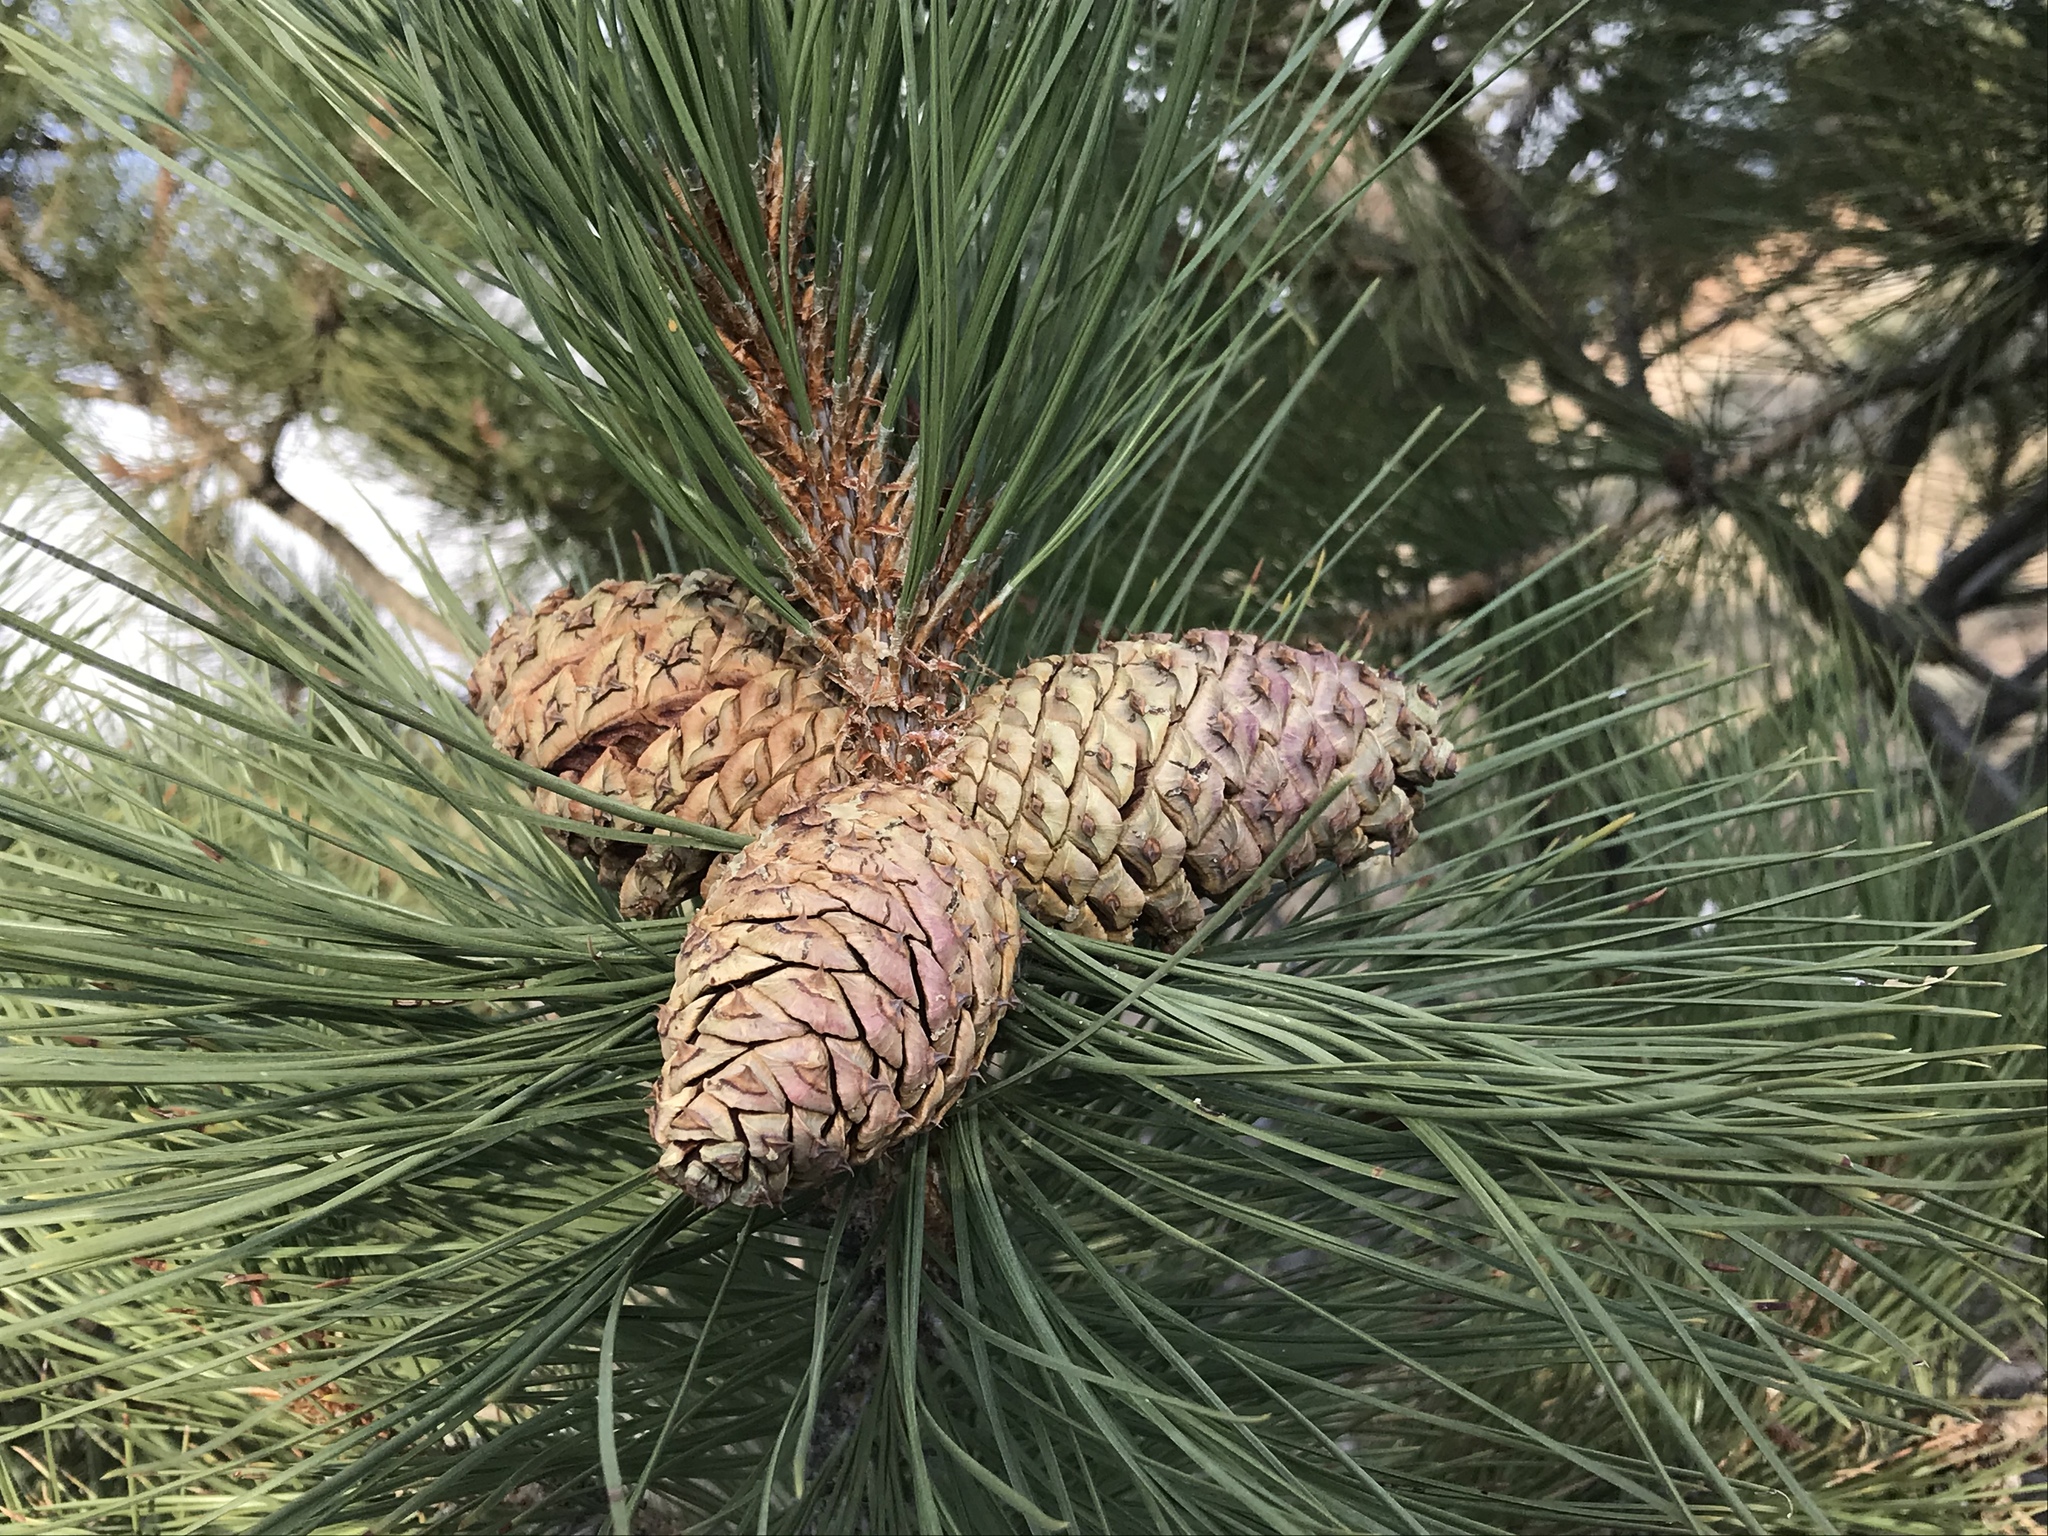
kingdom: Plantae
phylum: Tracheophyta
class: Pinopsida
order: Pinales
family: Pinaceae
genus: Pinus
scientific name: Pinus ponderosa
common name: Western yellow-pine
